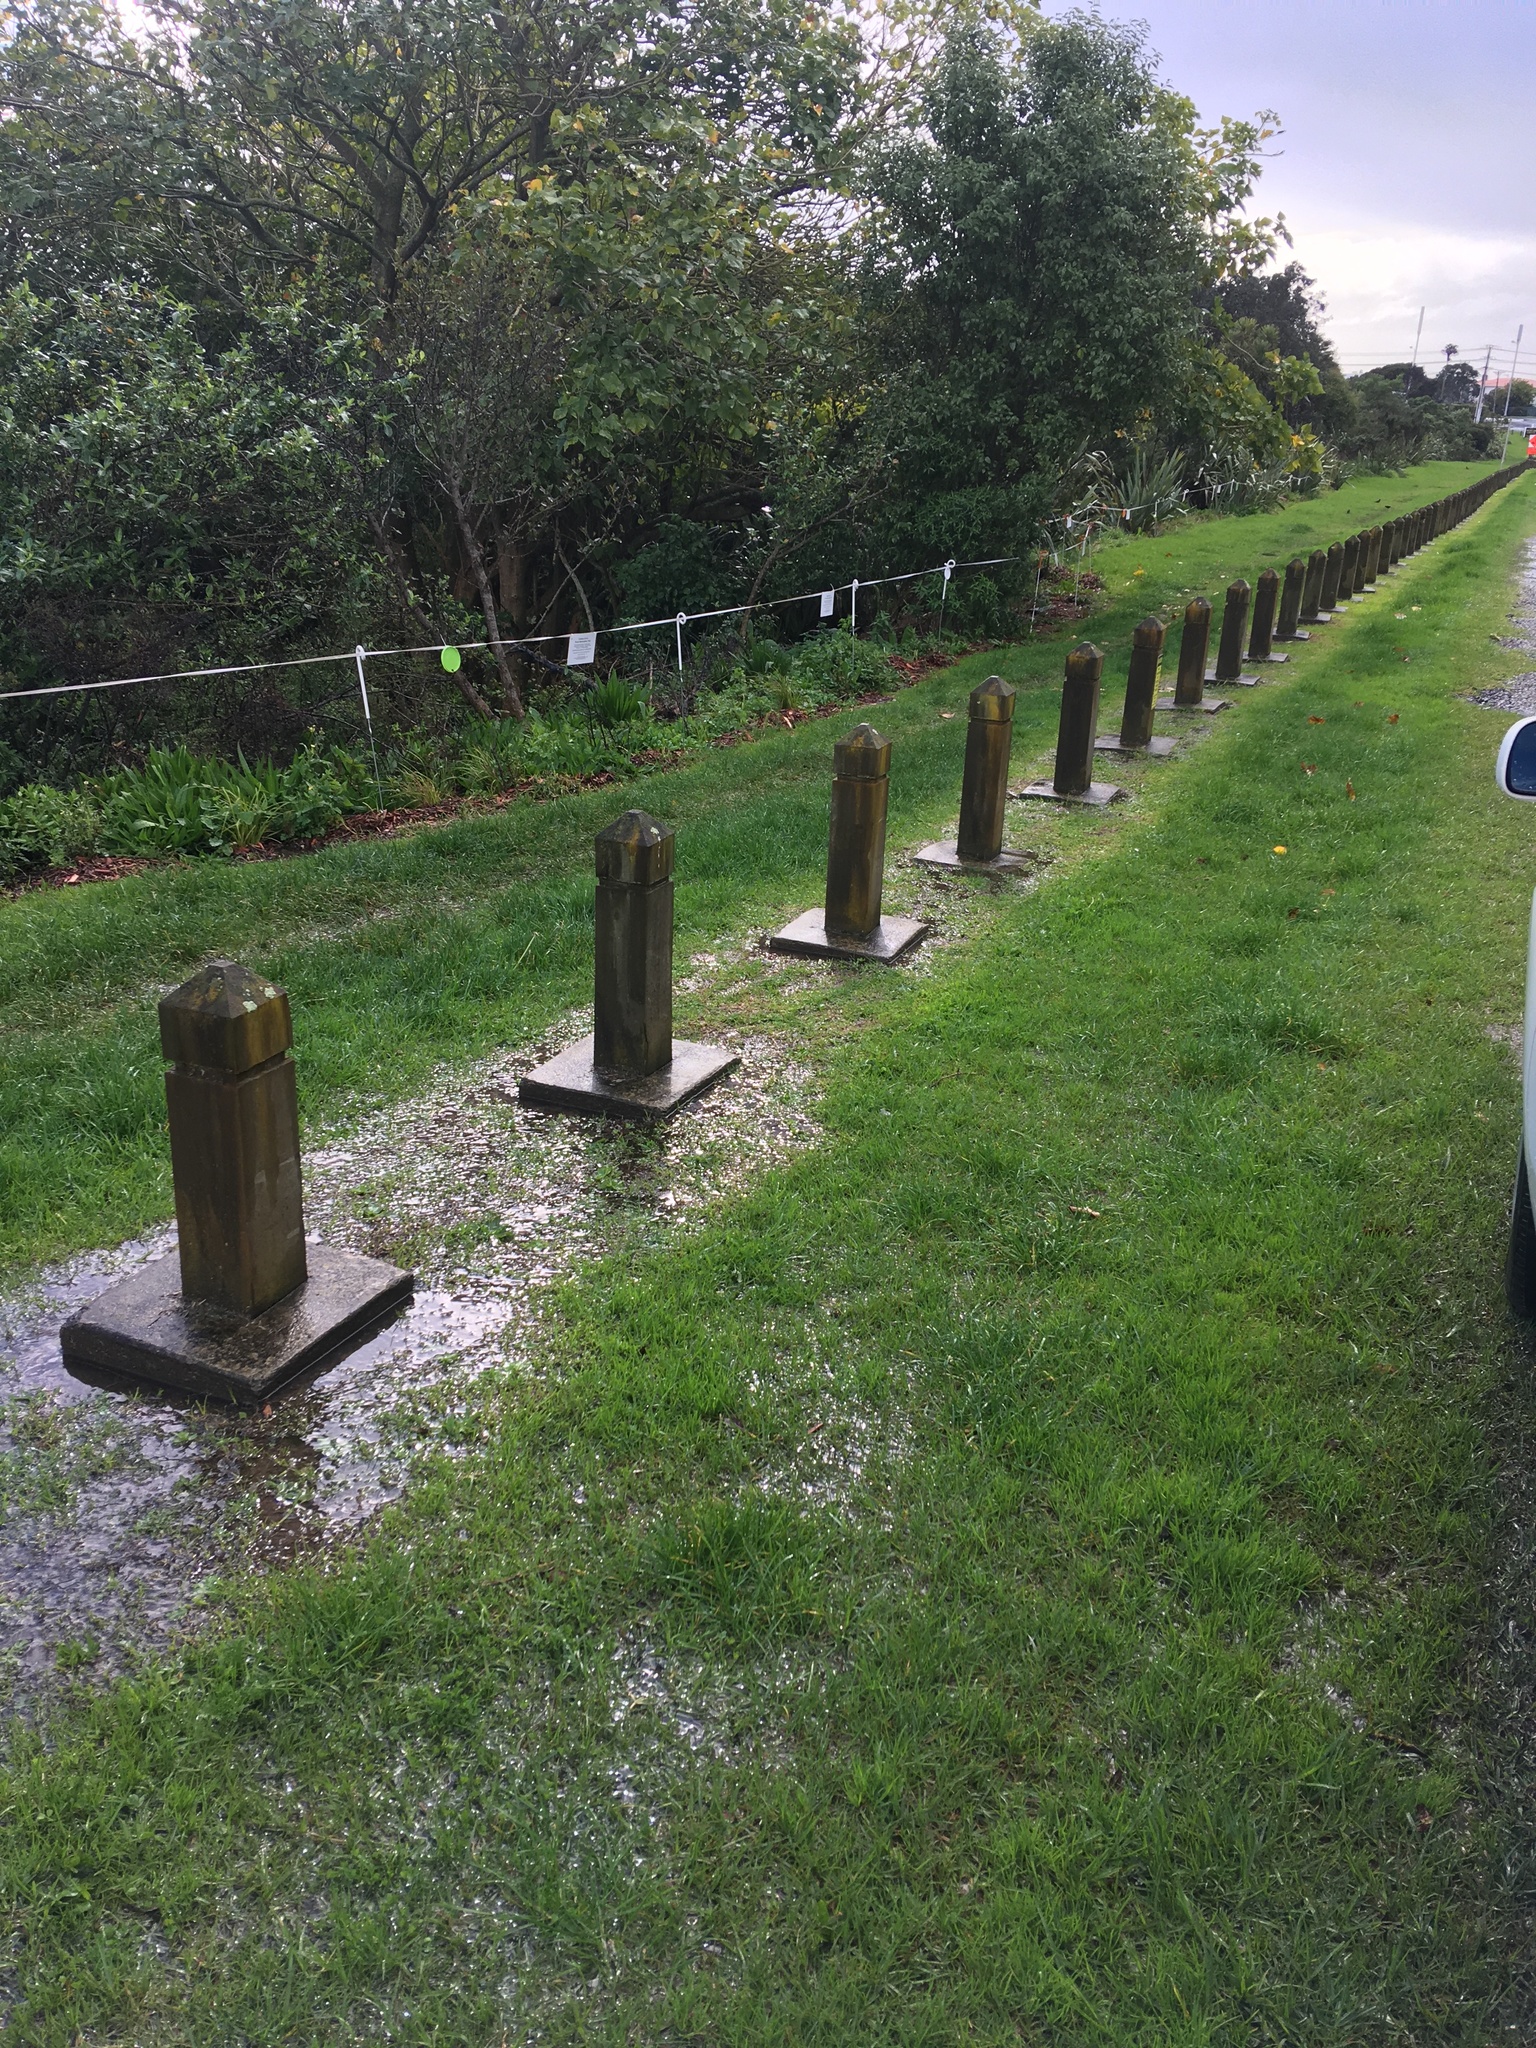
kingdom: Plantae
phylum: Tracheophyta
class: Magnoliopsida
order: Gentianales
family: Rubiaceae
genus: Coprosma
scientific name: Coprosma robusta
